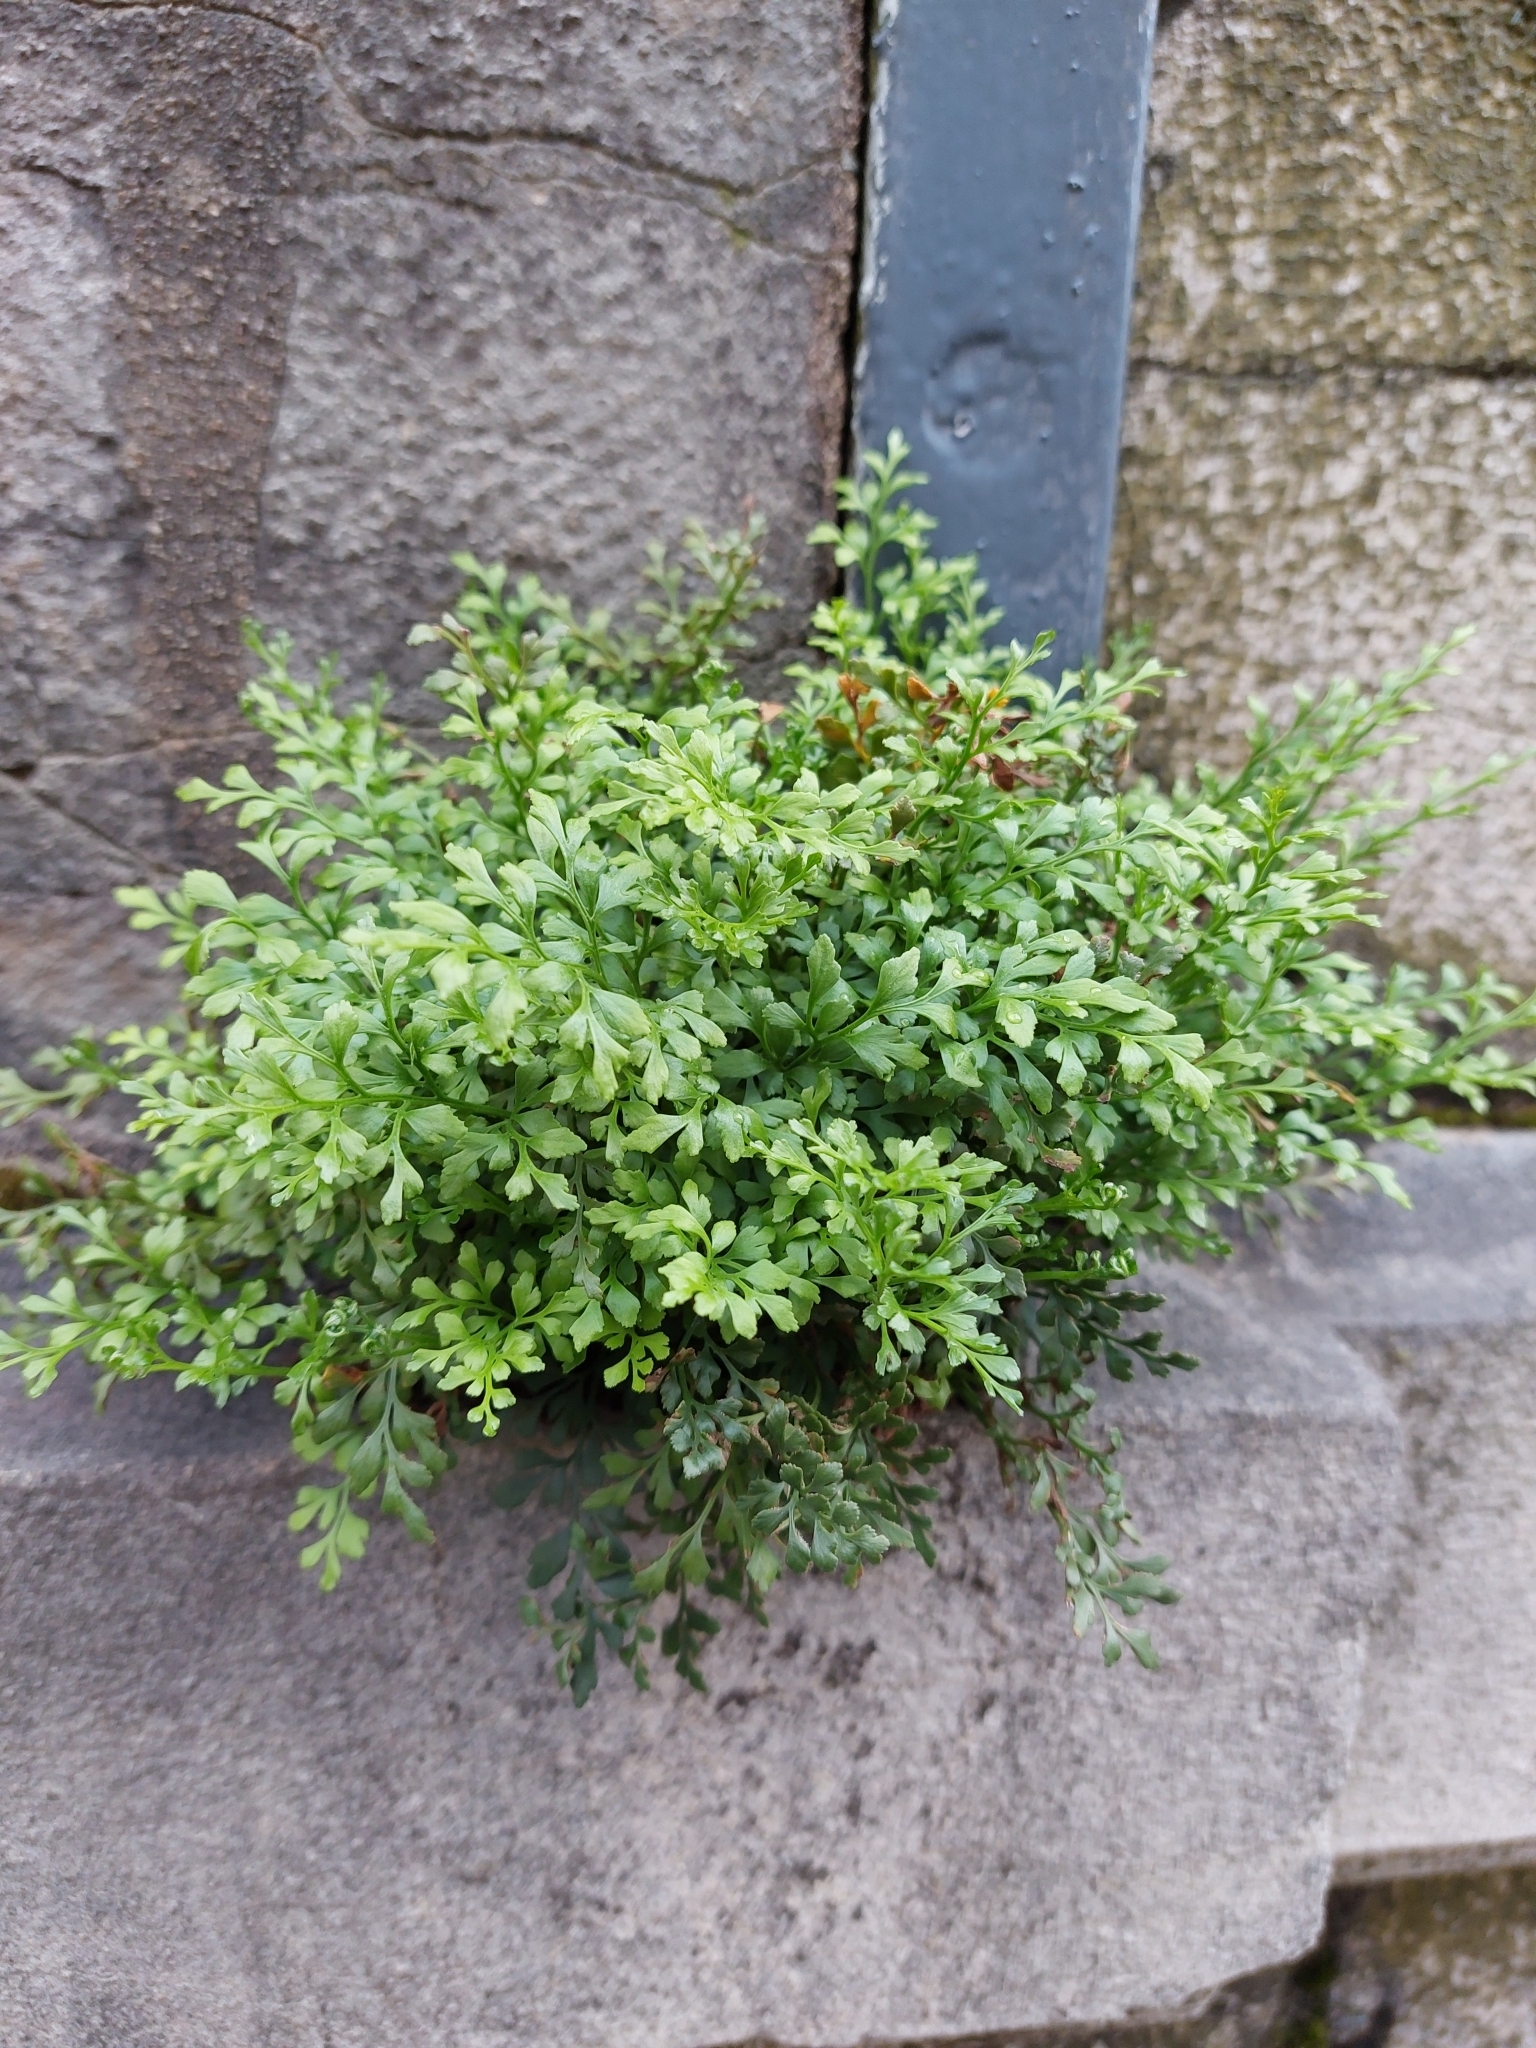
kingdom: Plantae
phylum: Tracheophyta
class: Polypodiopsida
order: Polypodiales
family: Aspleniaceae
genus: Asplenium
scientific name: Asplenium ruta-muraria
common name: Wall-rue
